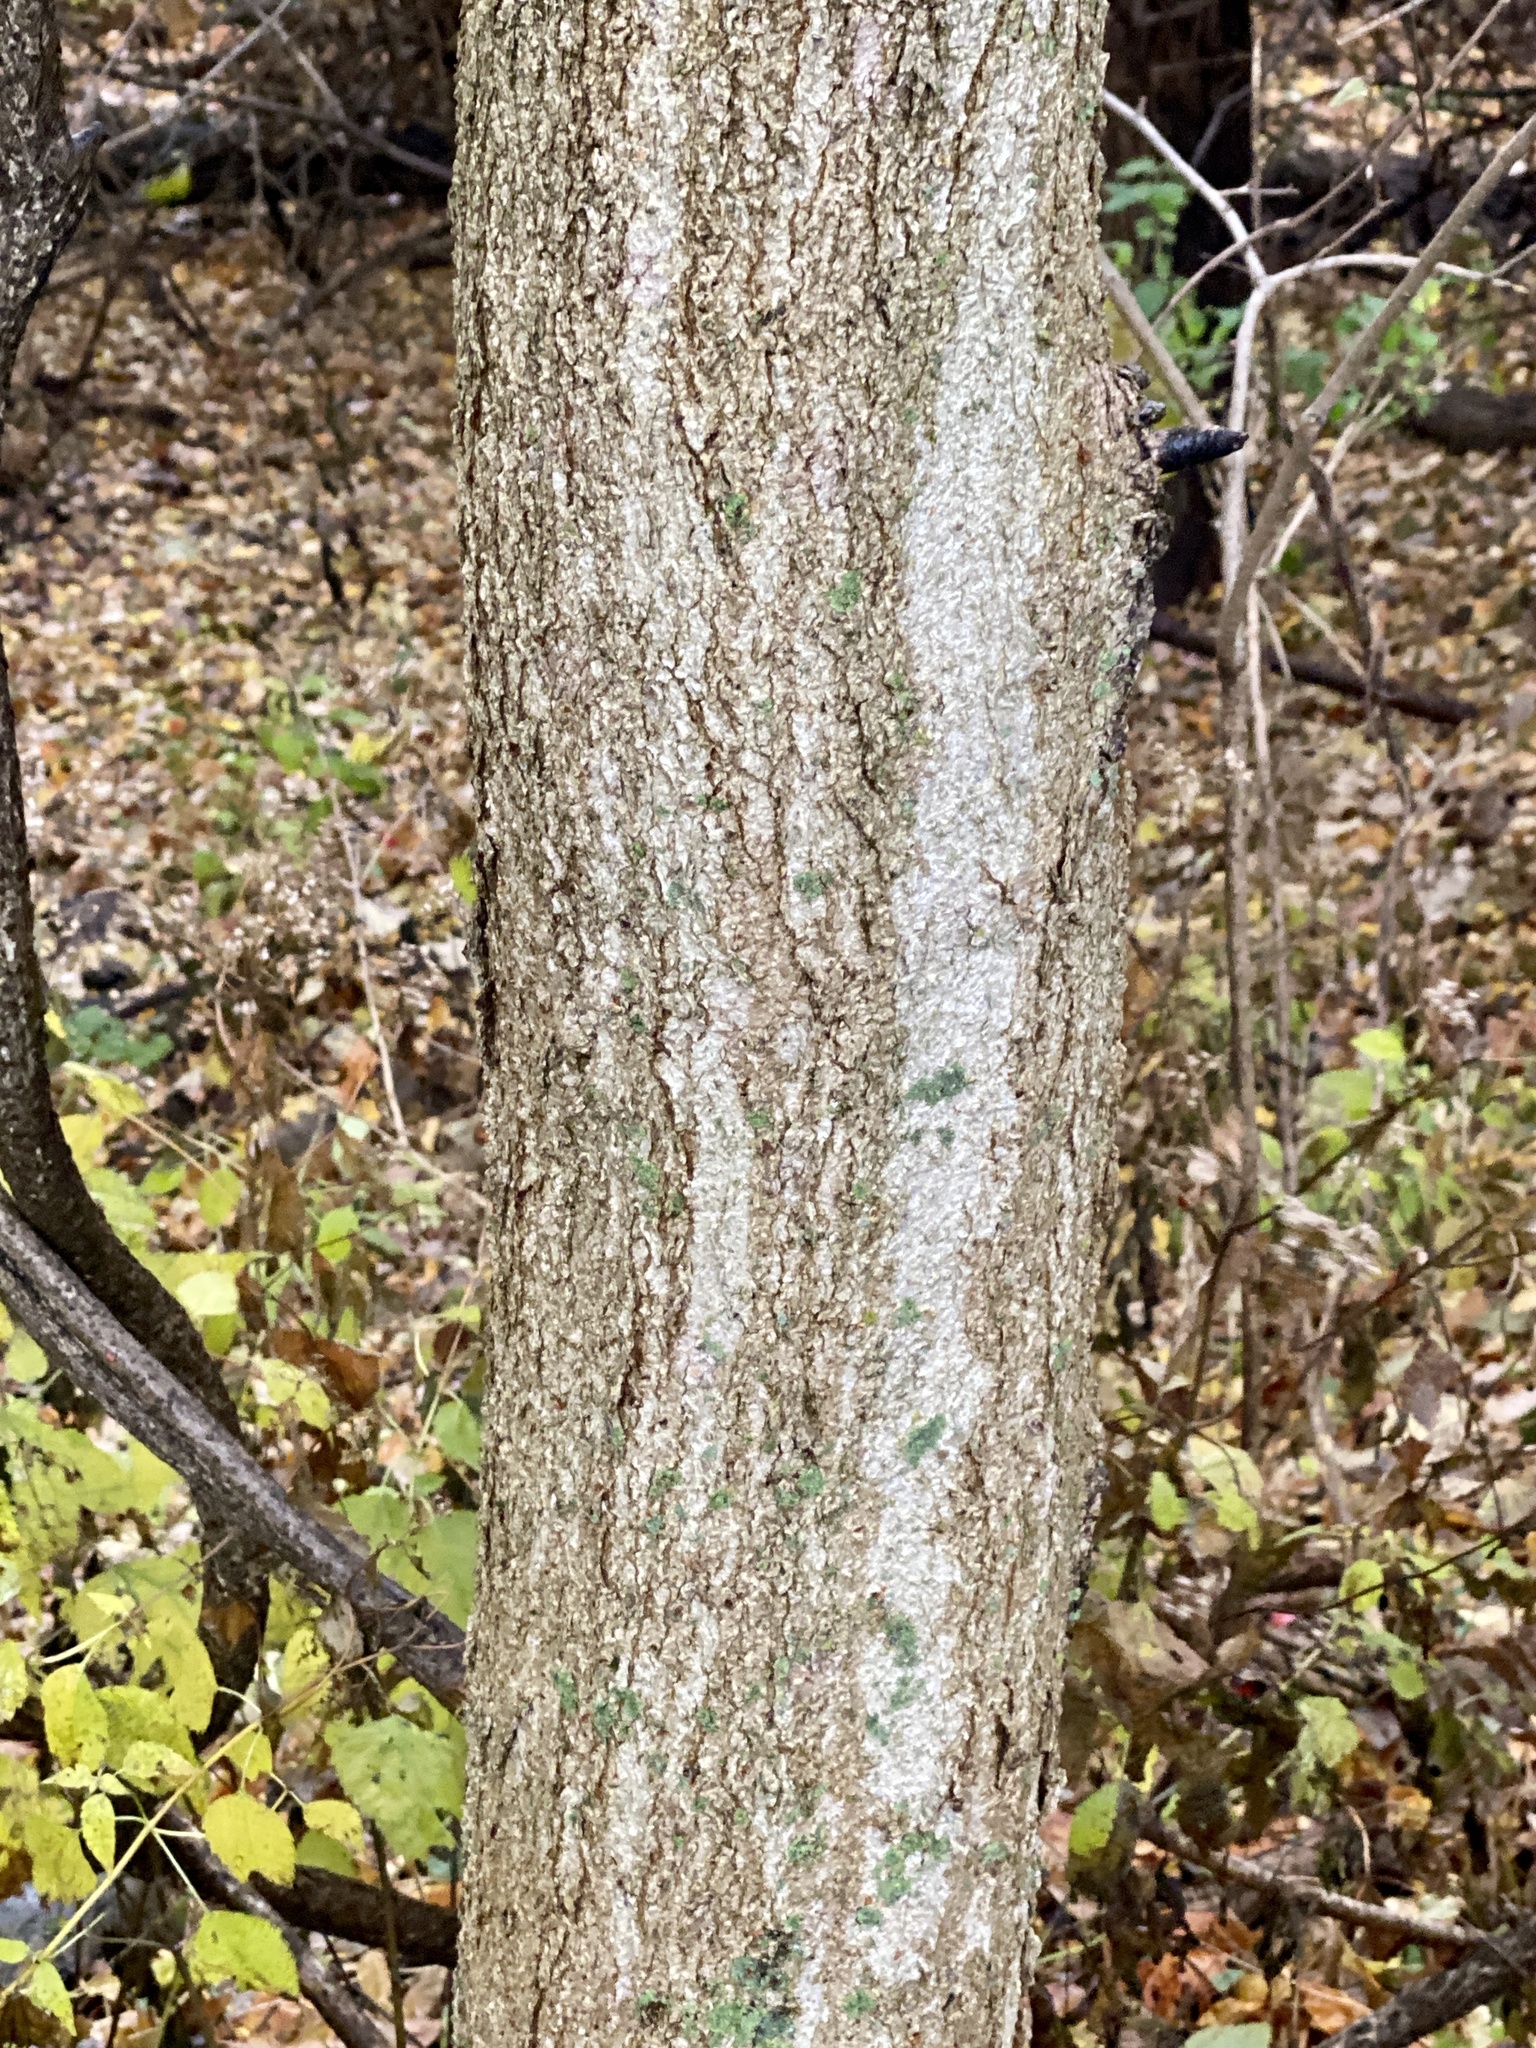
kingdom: Plantae
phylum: Tracheophyta
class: Magnoliopsida
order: Sapindales
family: Sapindaceae
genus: Aesculus
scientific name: Aesculus flava
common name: Yellow buckeye
